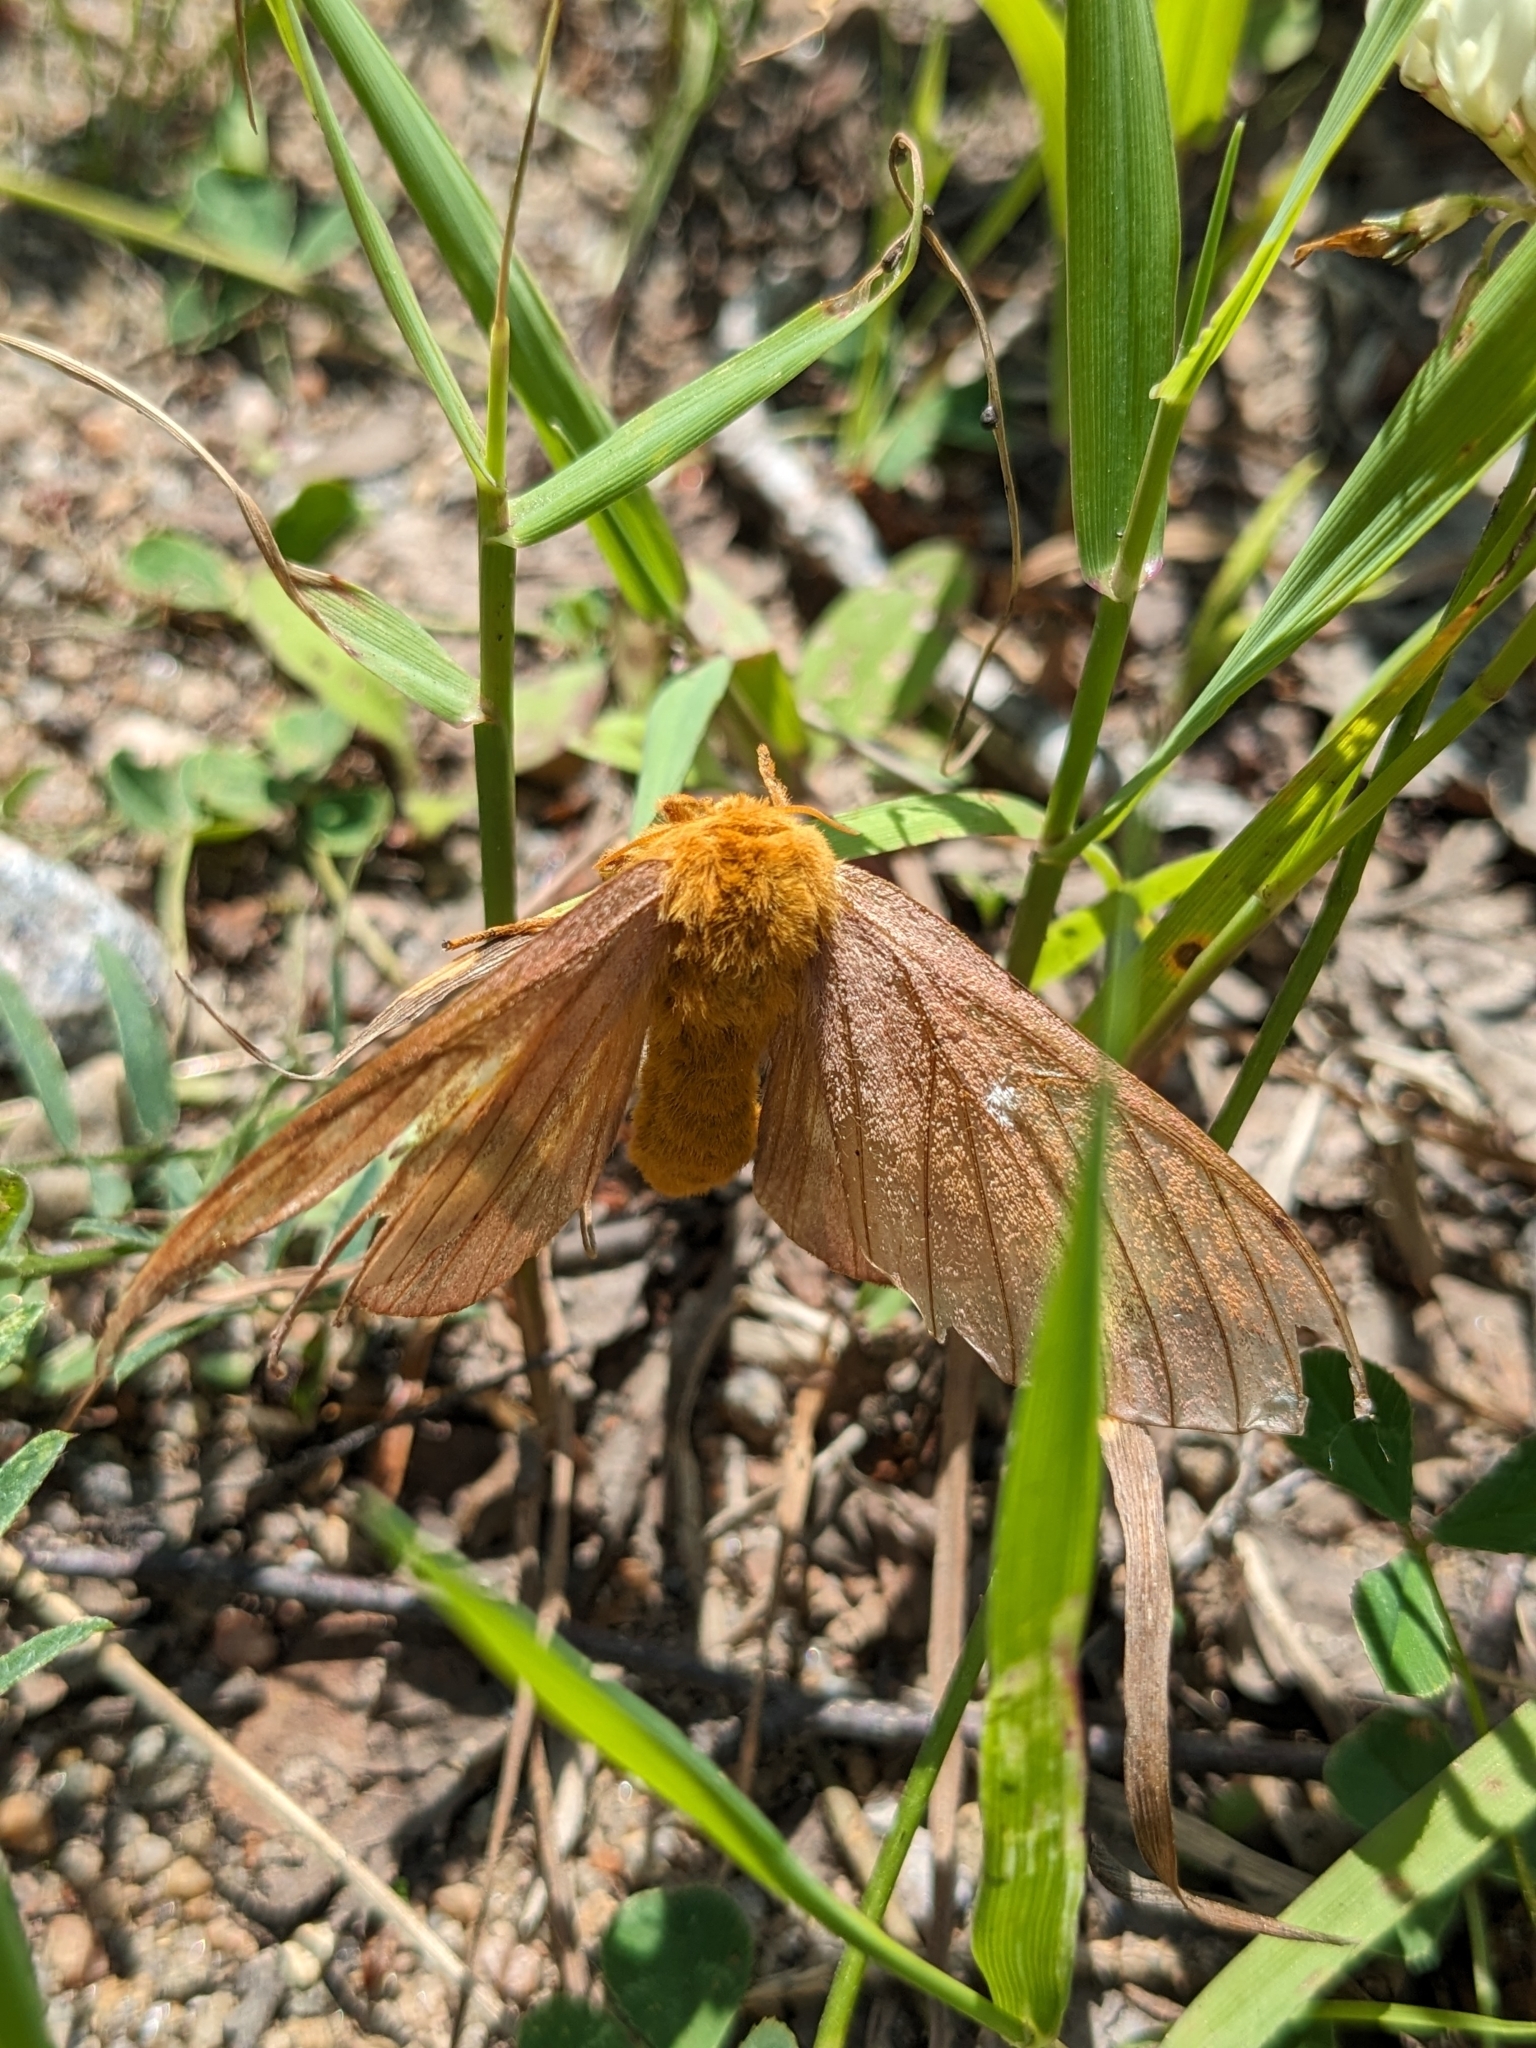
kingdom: Animalia
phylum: Arthropoda
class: Insecta
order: Lepidoptera
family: Saturniidae
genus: Anisota
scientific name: Anisota virginiensis
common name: Pink striped oakworm moth
